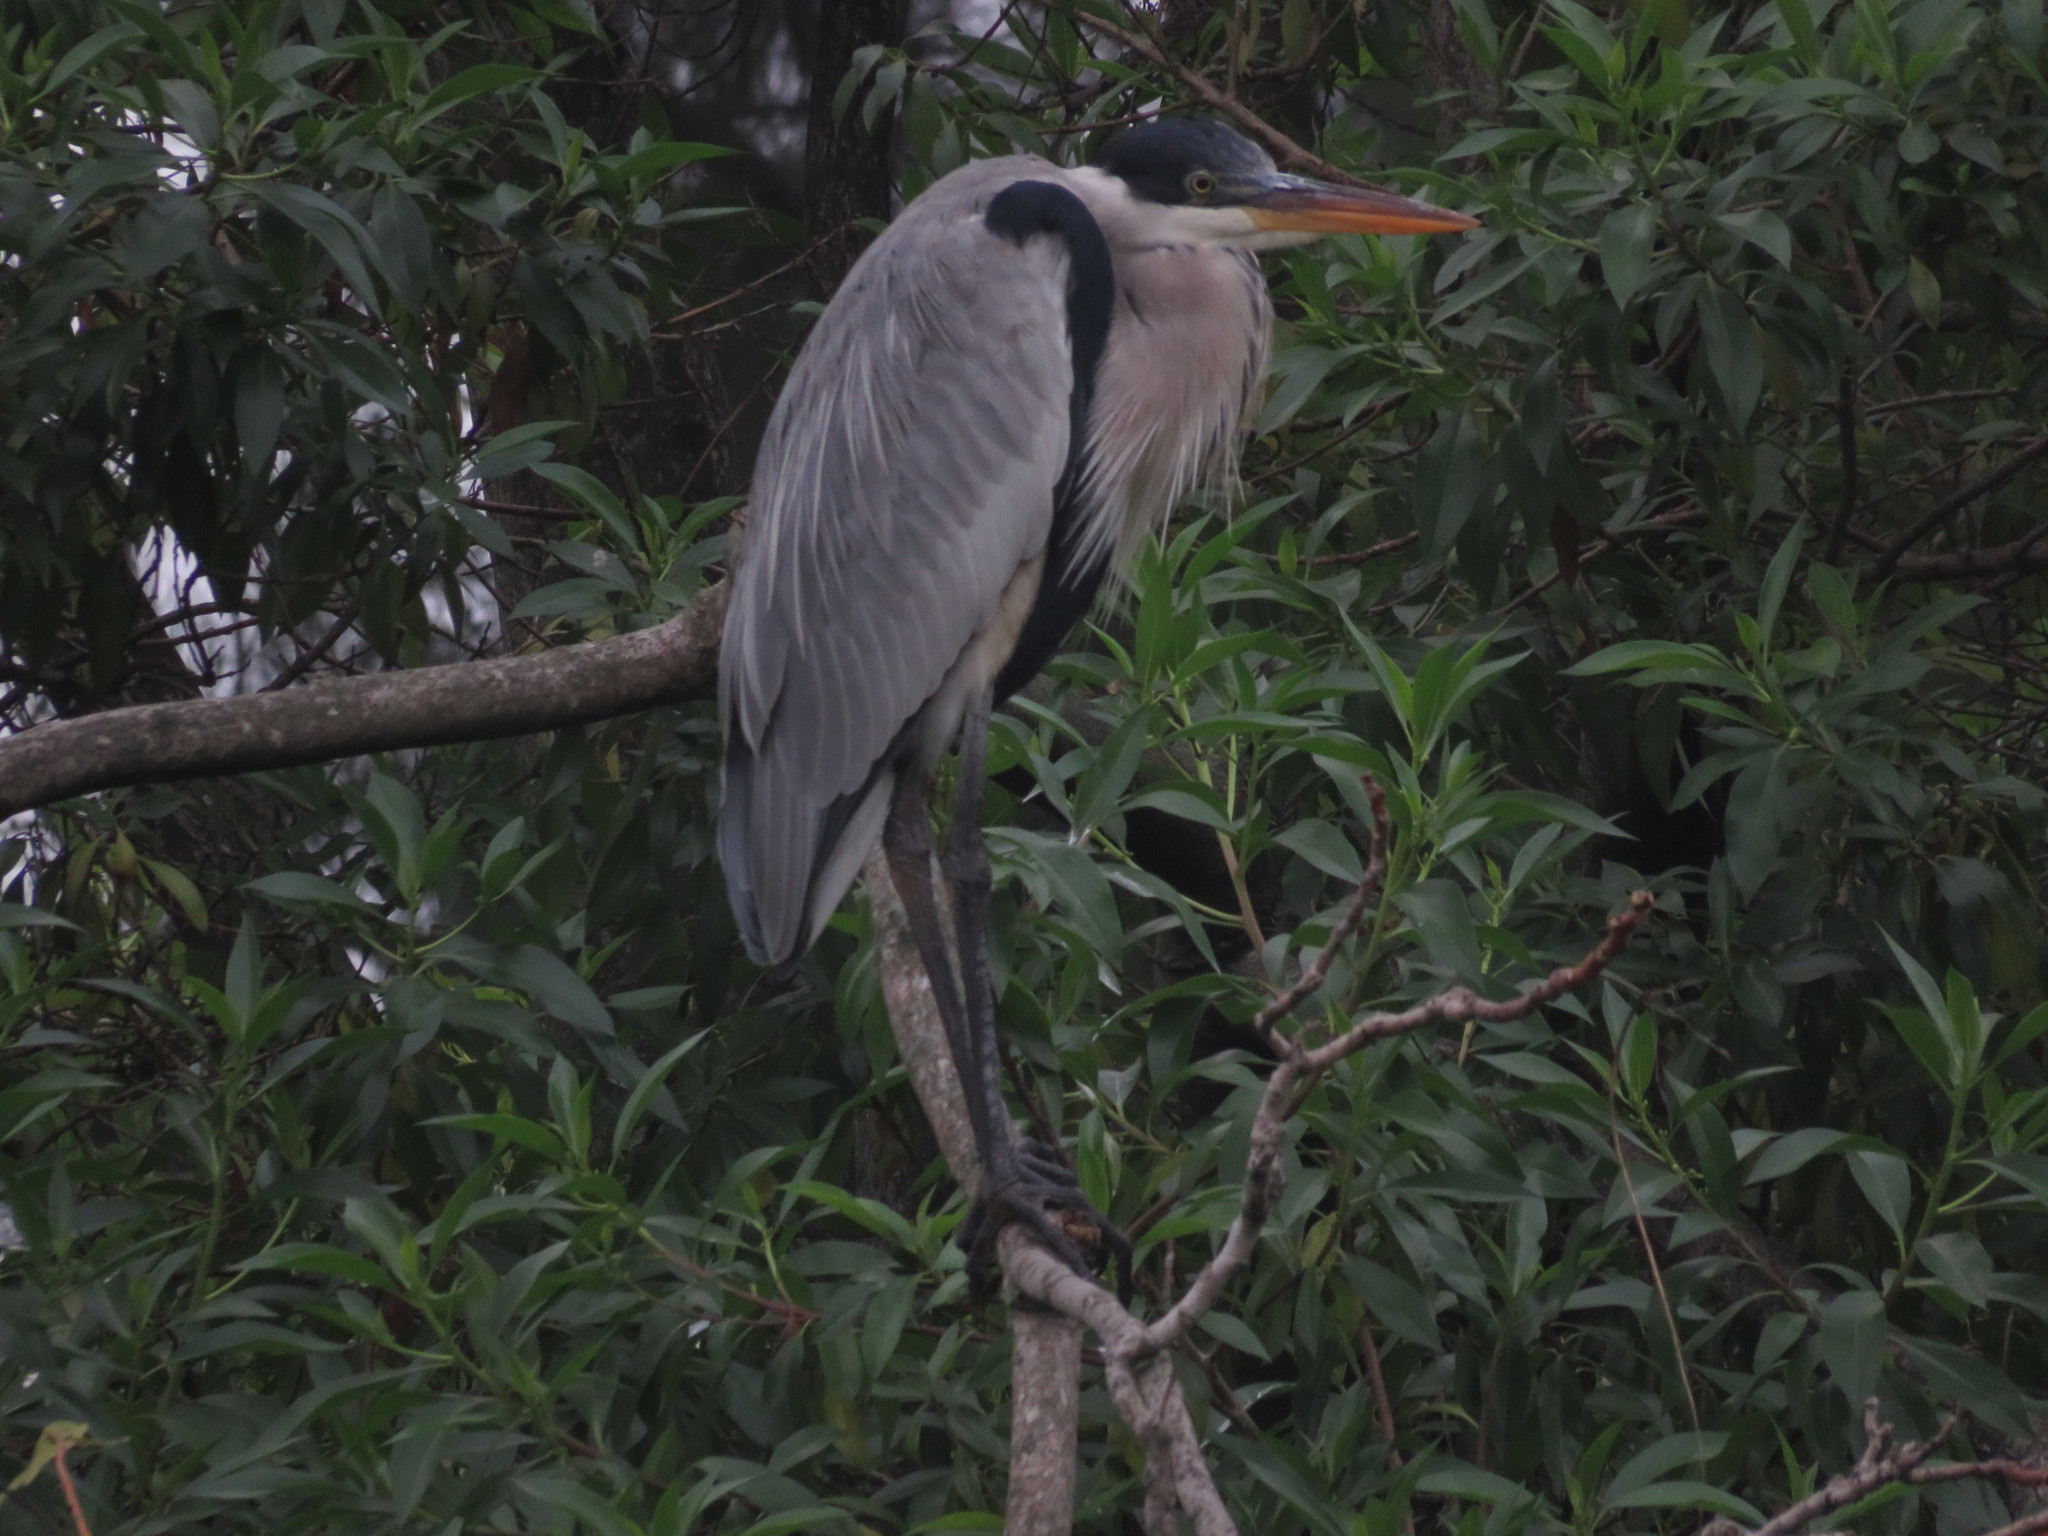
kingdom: Animalia
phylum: Chordata
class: Aves
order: Pelecaniformes
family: Ardeidae
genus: Ardea
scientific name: Ardea cocoi
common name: Cocoi heron
